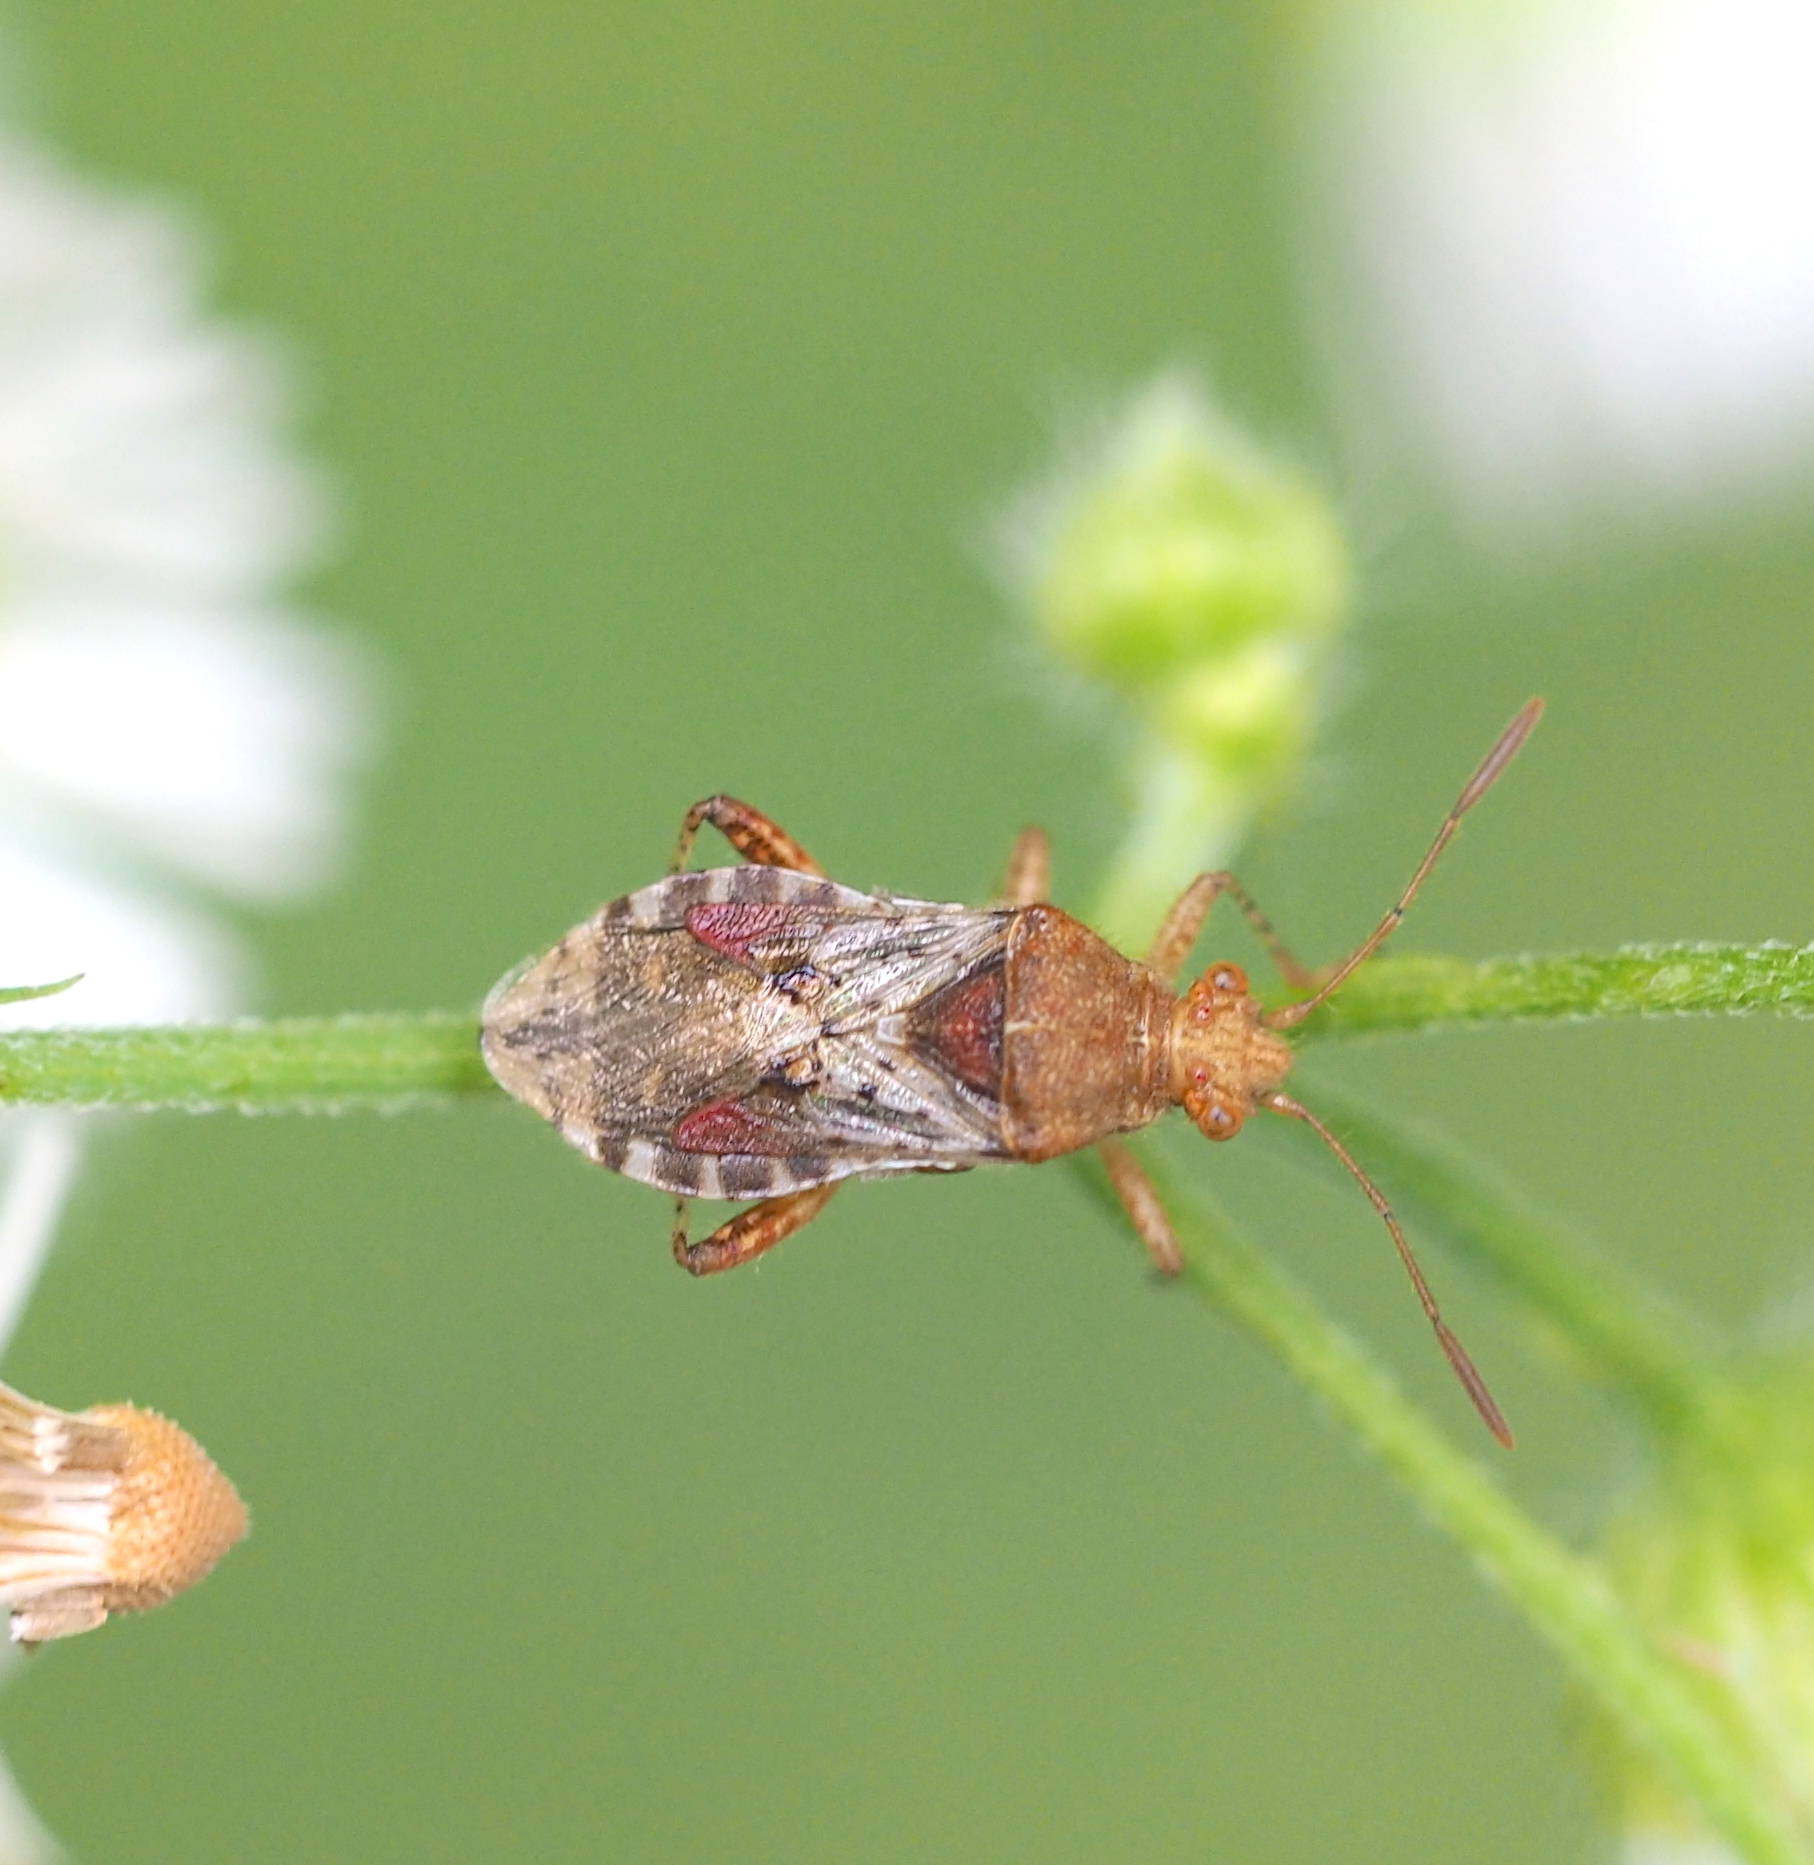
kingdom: Animalia
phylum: Arthropoda
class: Insecta
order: Hemiptera
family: Rhopalidae
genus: Rhopalus
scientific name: Rhopalus subrufus
